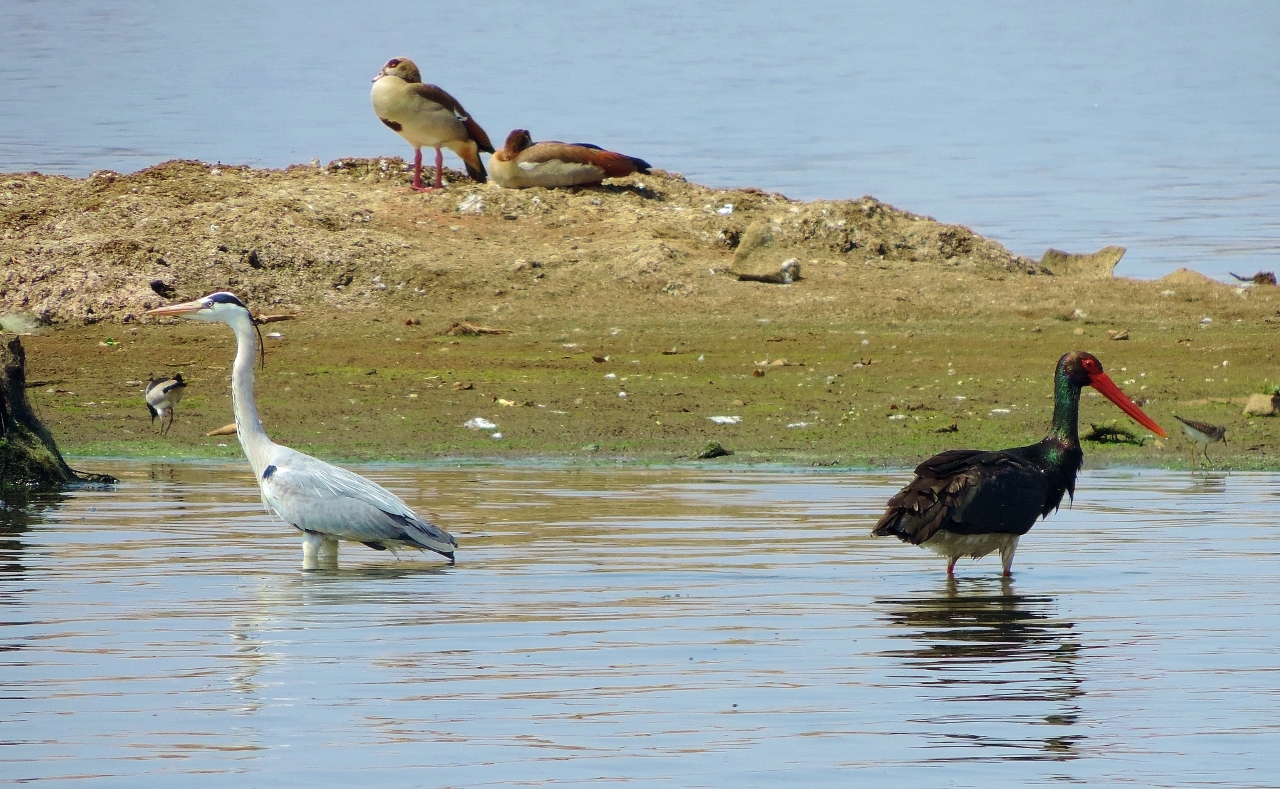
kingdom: Animalia
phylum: Chordata
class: Aves
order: Pelecaniformes
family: Ardeidae
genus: Ardea
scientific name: Ardea cinerea
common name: Grey heron
